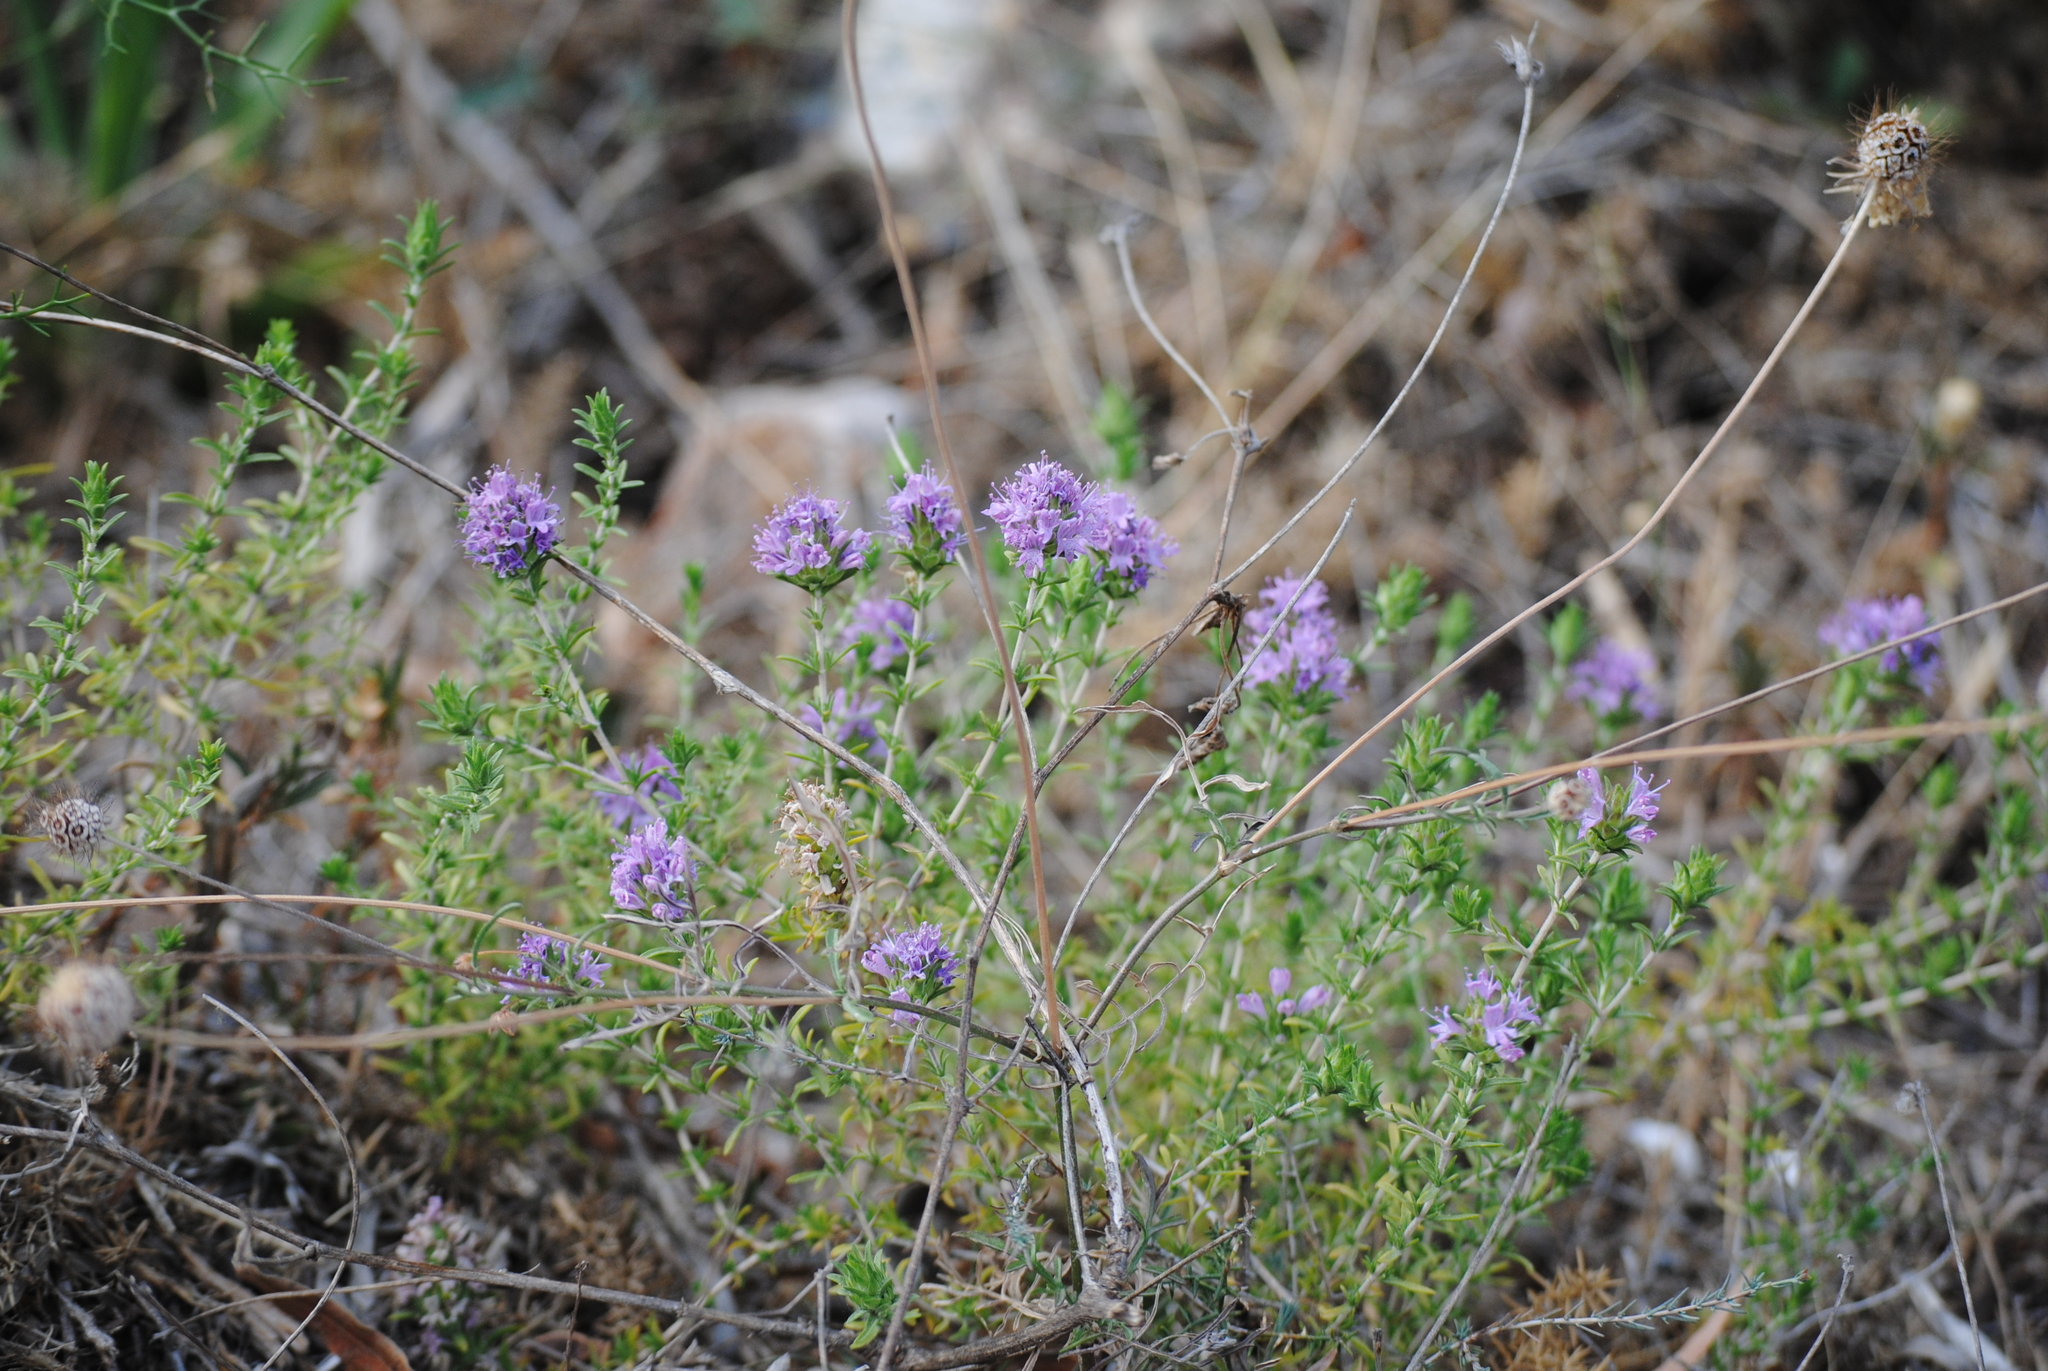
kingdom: Plantae
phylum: Tracheophyta
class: Magnoliopsida
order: Lamiales
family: Lamiaceae
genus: Thymbra
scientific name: Thymbra capitata
